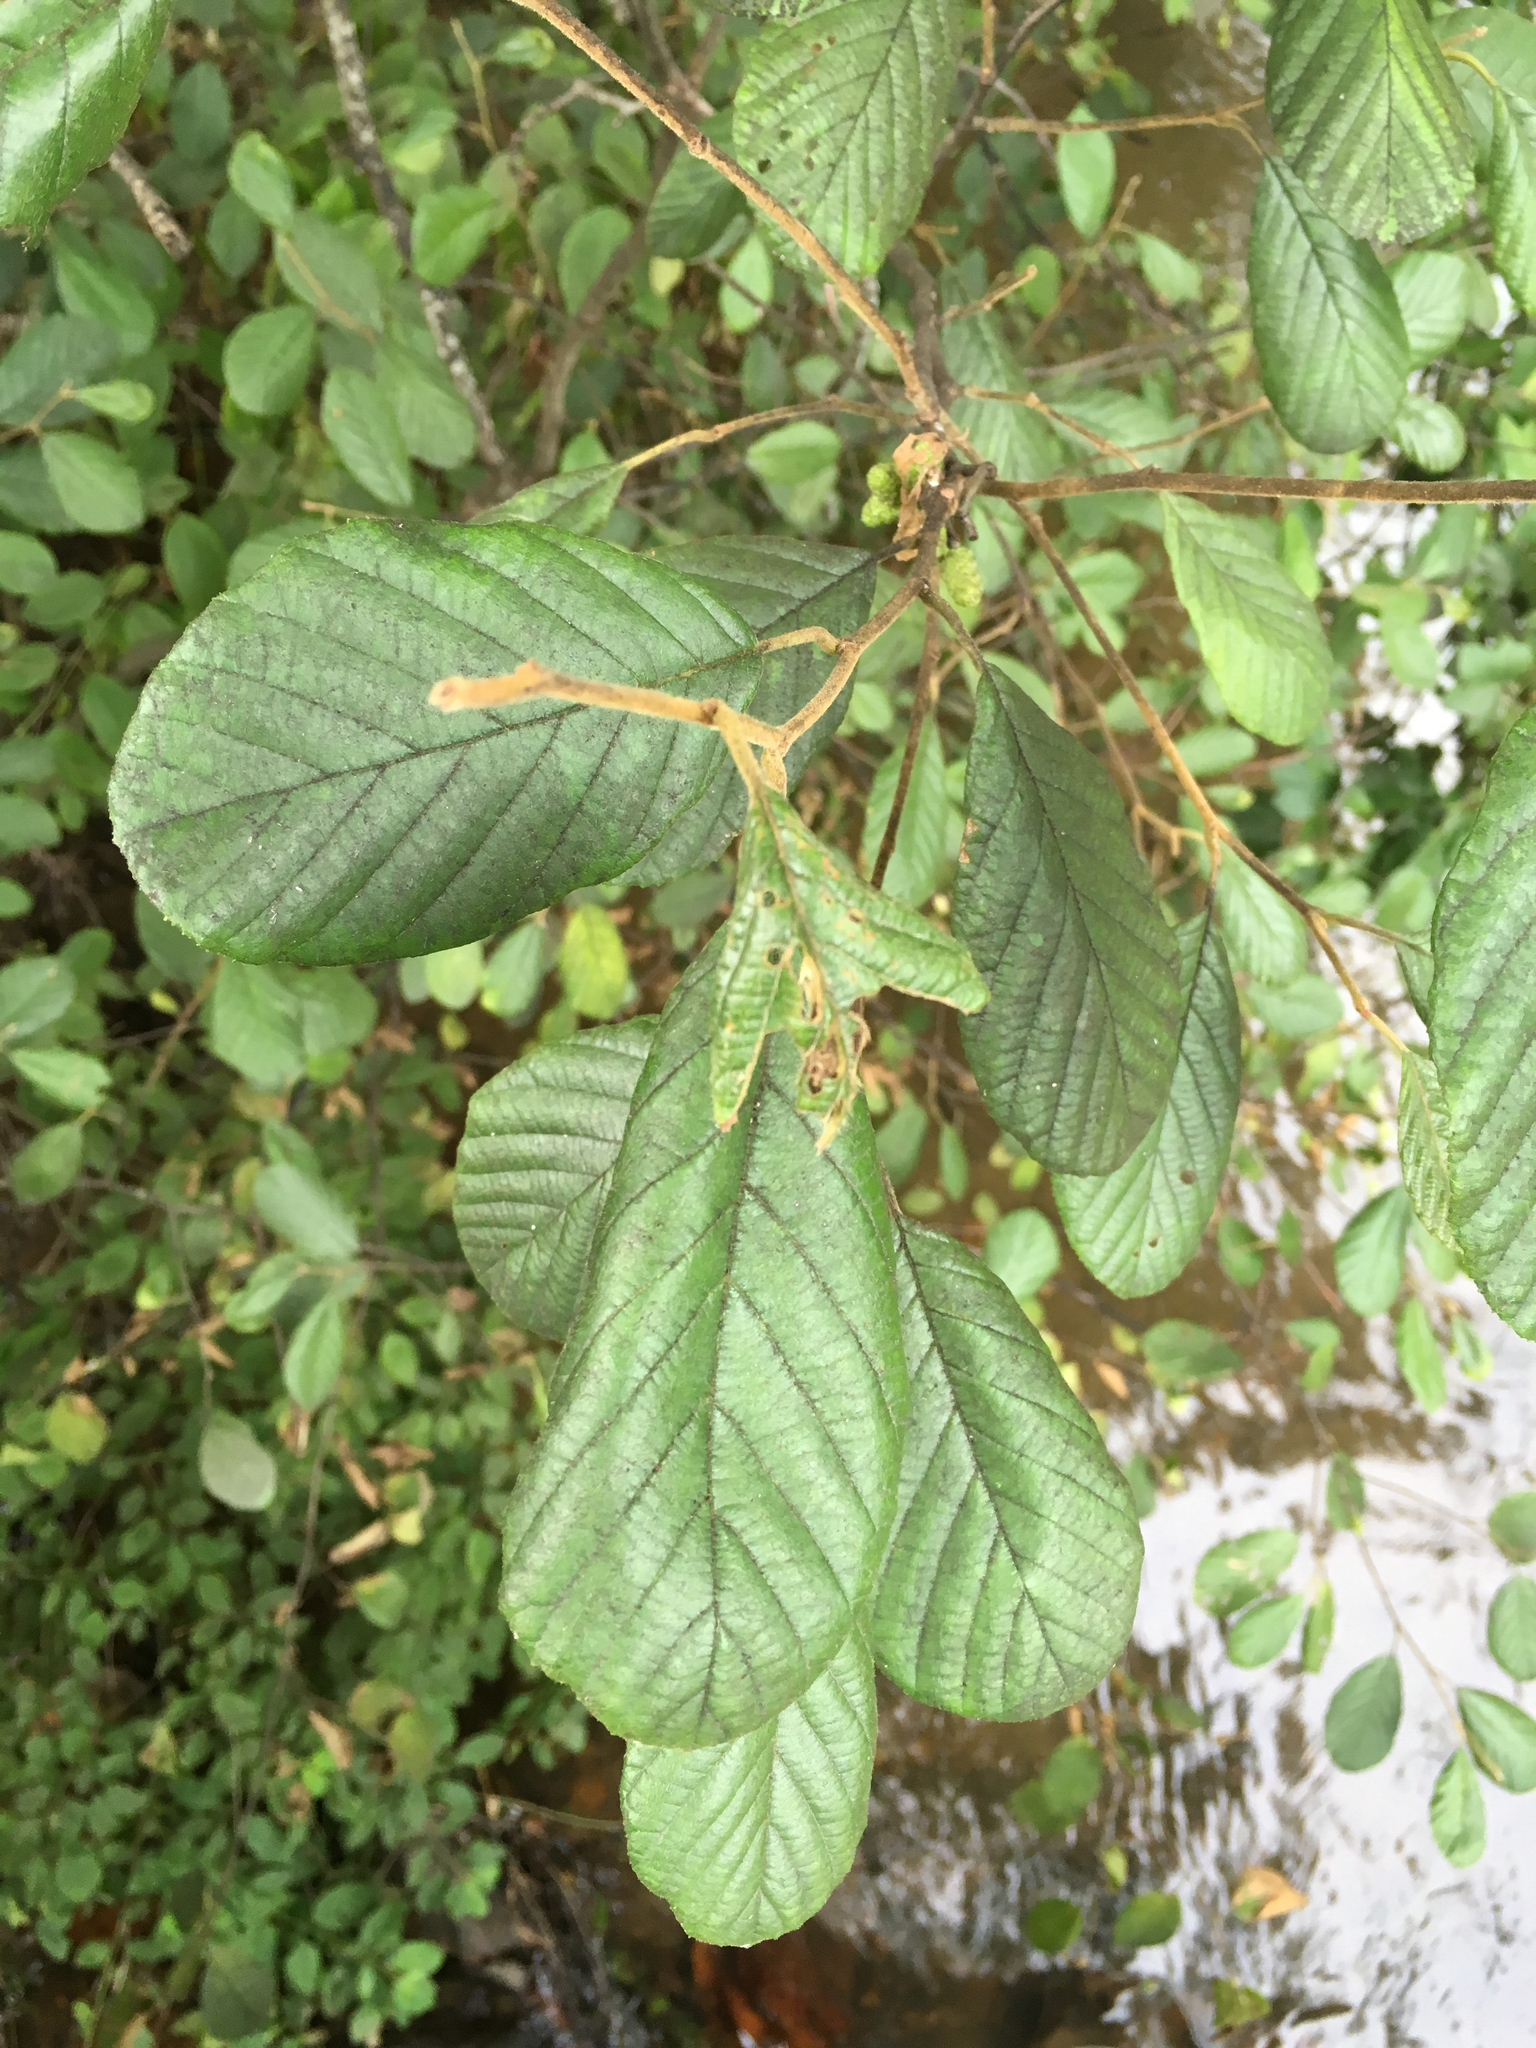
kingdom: Plantae
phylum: Tracheophyta
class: Magnoliopsida
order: Fagales
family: Betulaceae
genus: Alnus
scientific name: Alnus serrulata
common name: Hazel alder
